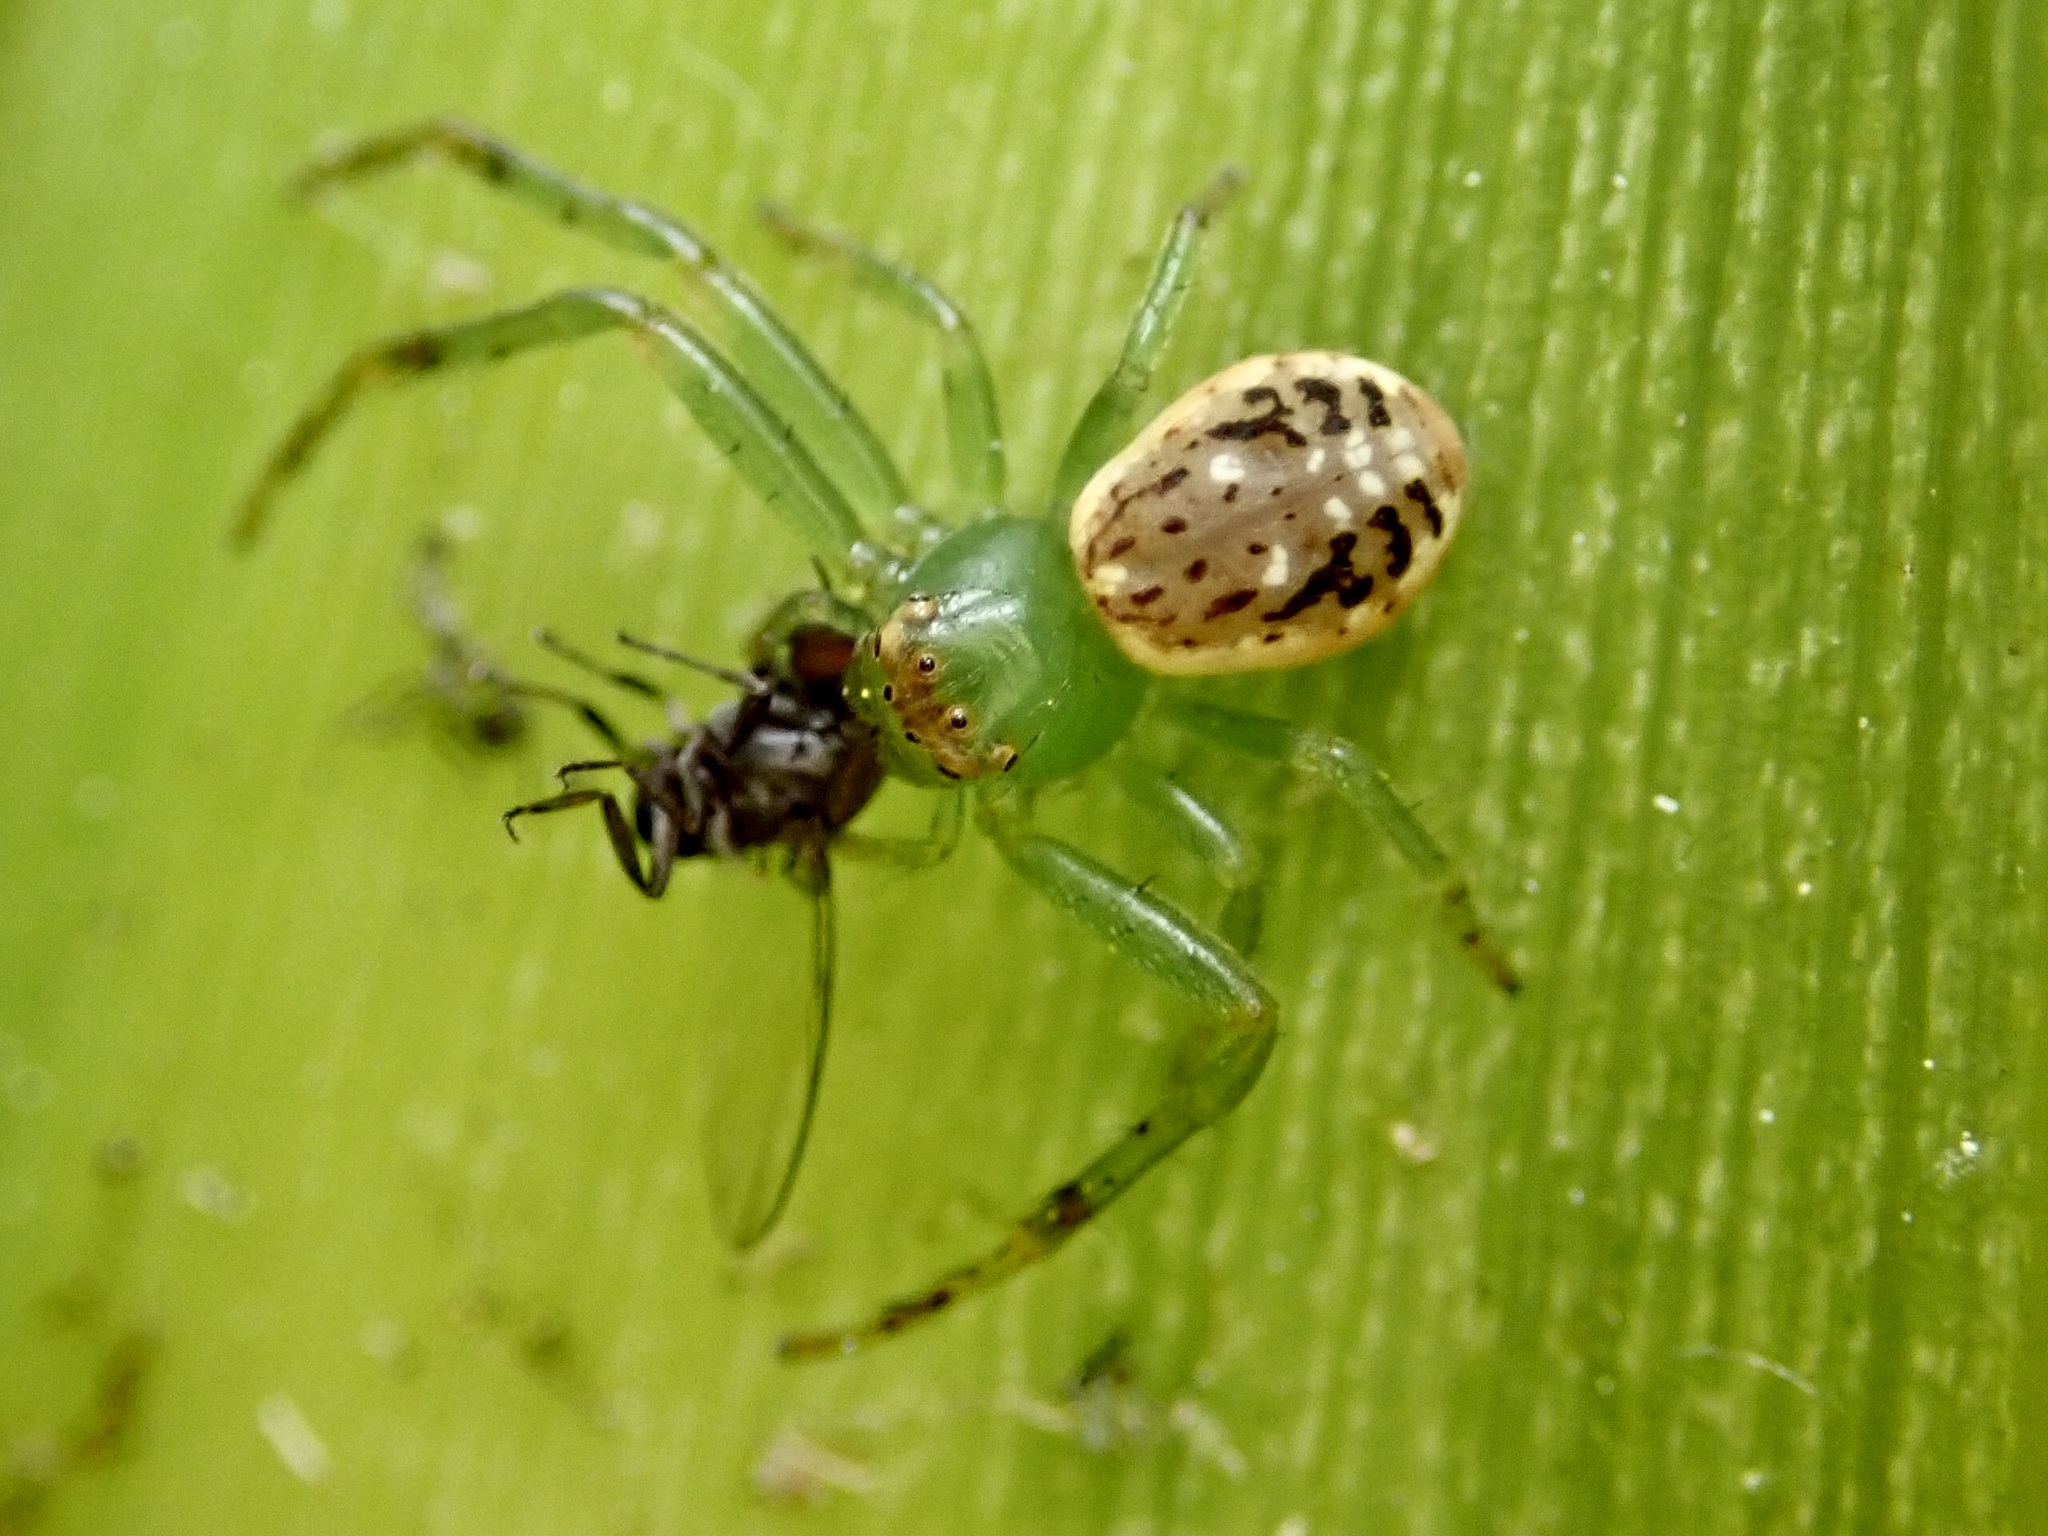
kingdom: Animalia
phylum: Arthropoda
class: Arachnida
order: Araneae
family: Thomisidae
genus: Diaea
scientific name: Diaea ambara
